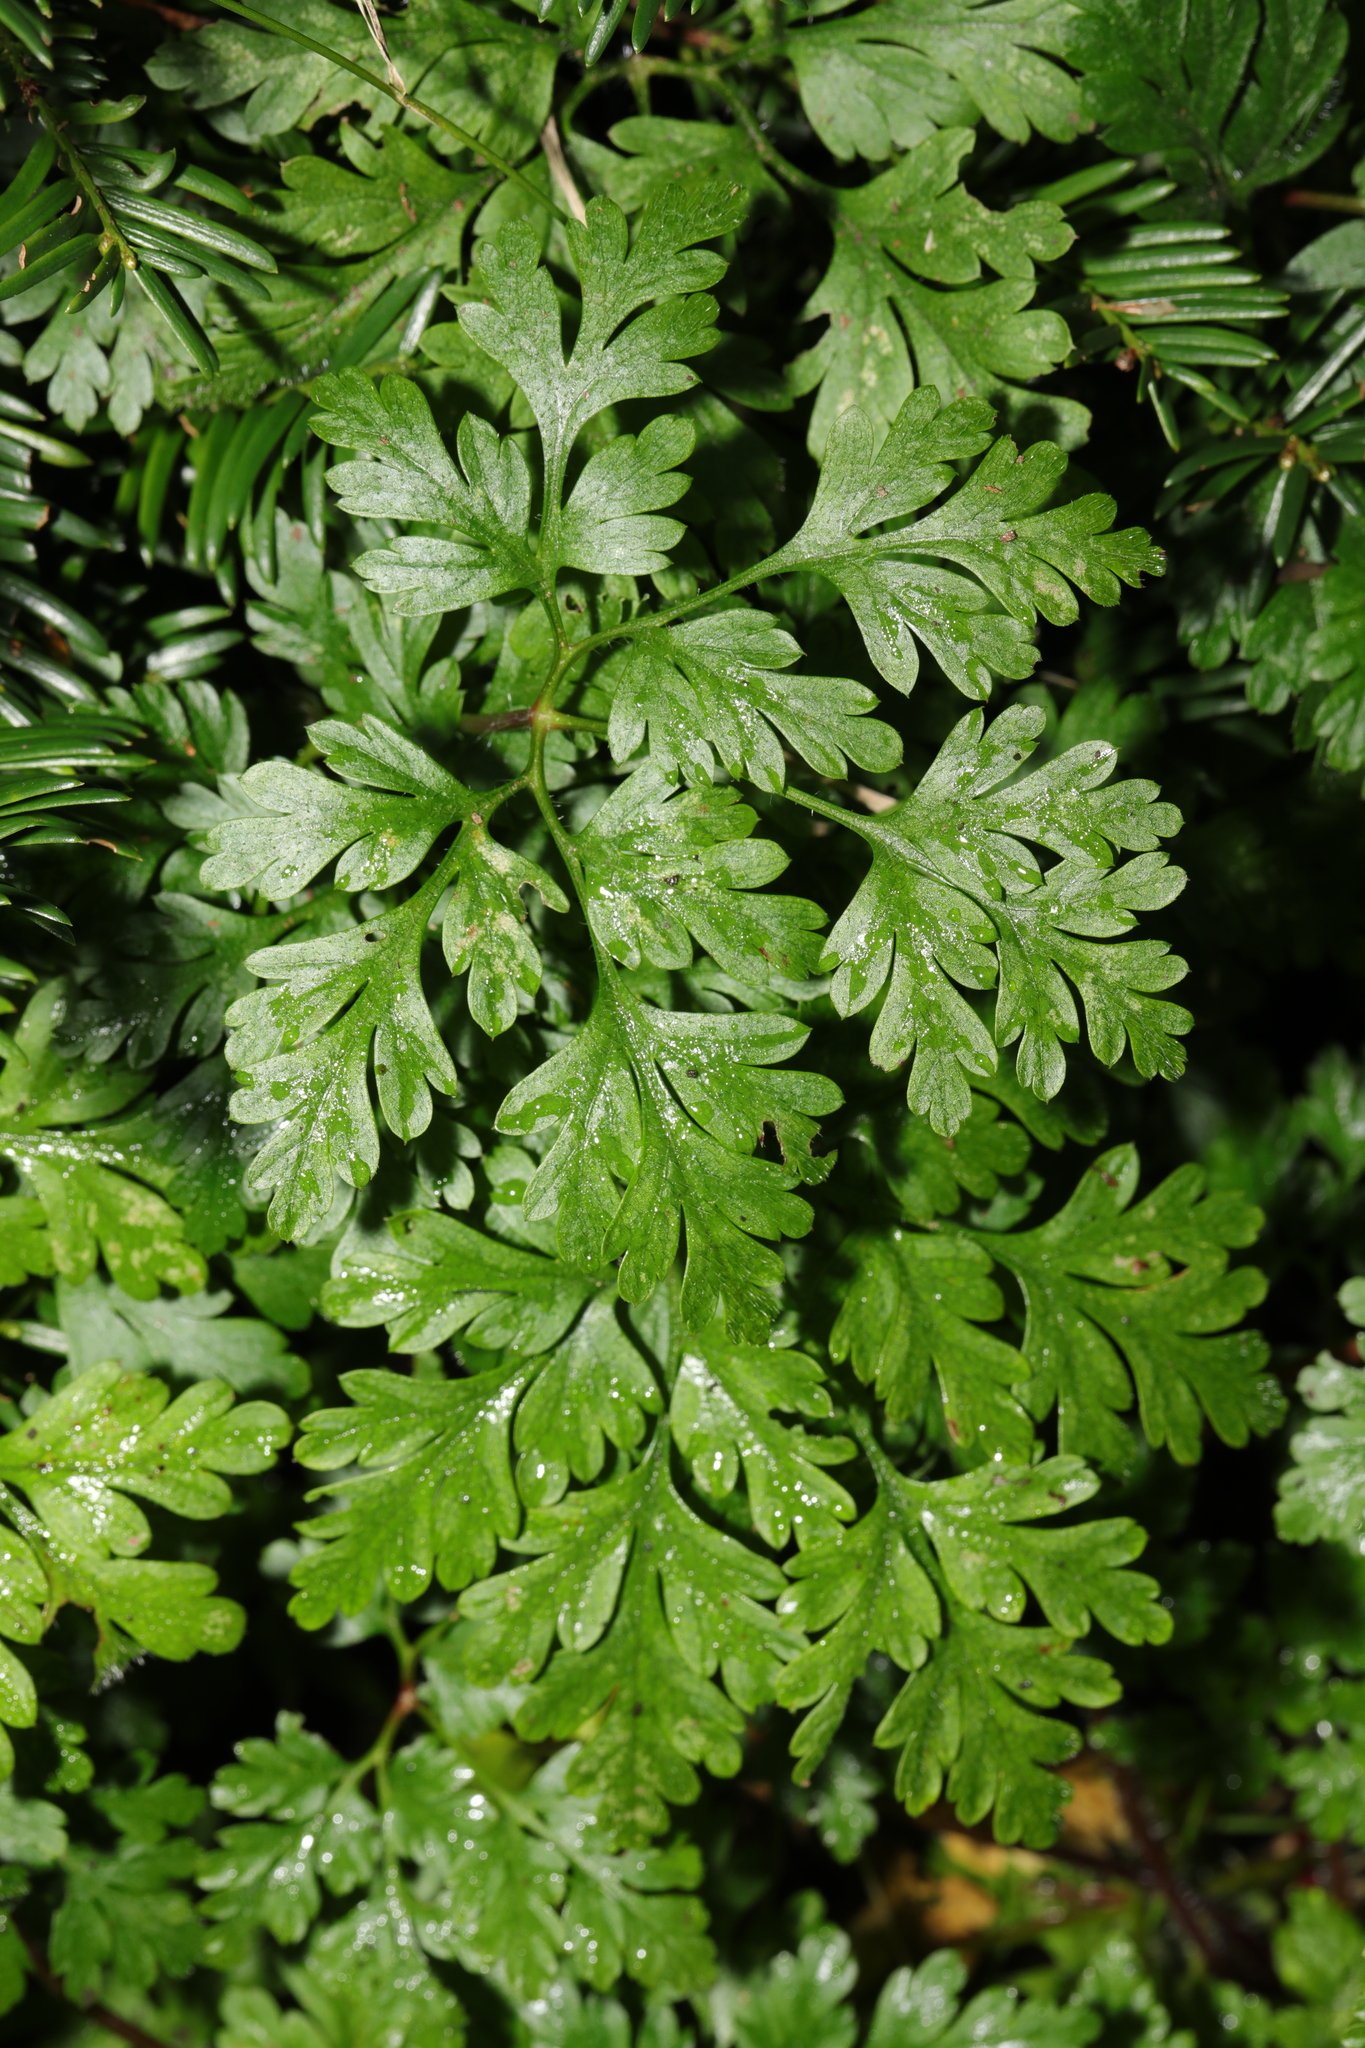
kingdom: Plantae
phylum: Tracheophyta
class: Magnoliopsida
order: Geraniales
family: Geraniaceae
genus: Geranium
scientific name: Geranium robertianum
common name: Herb-robert
